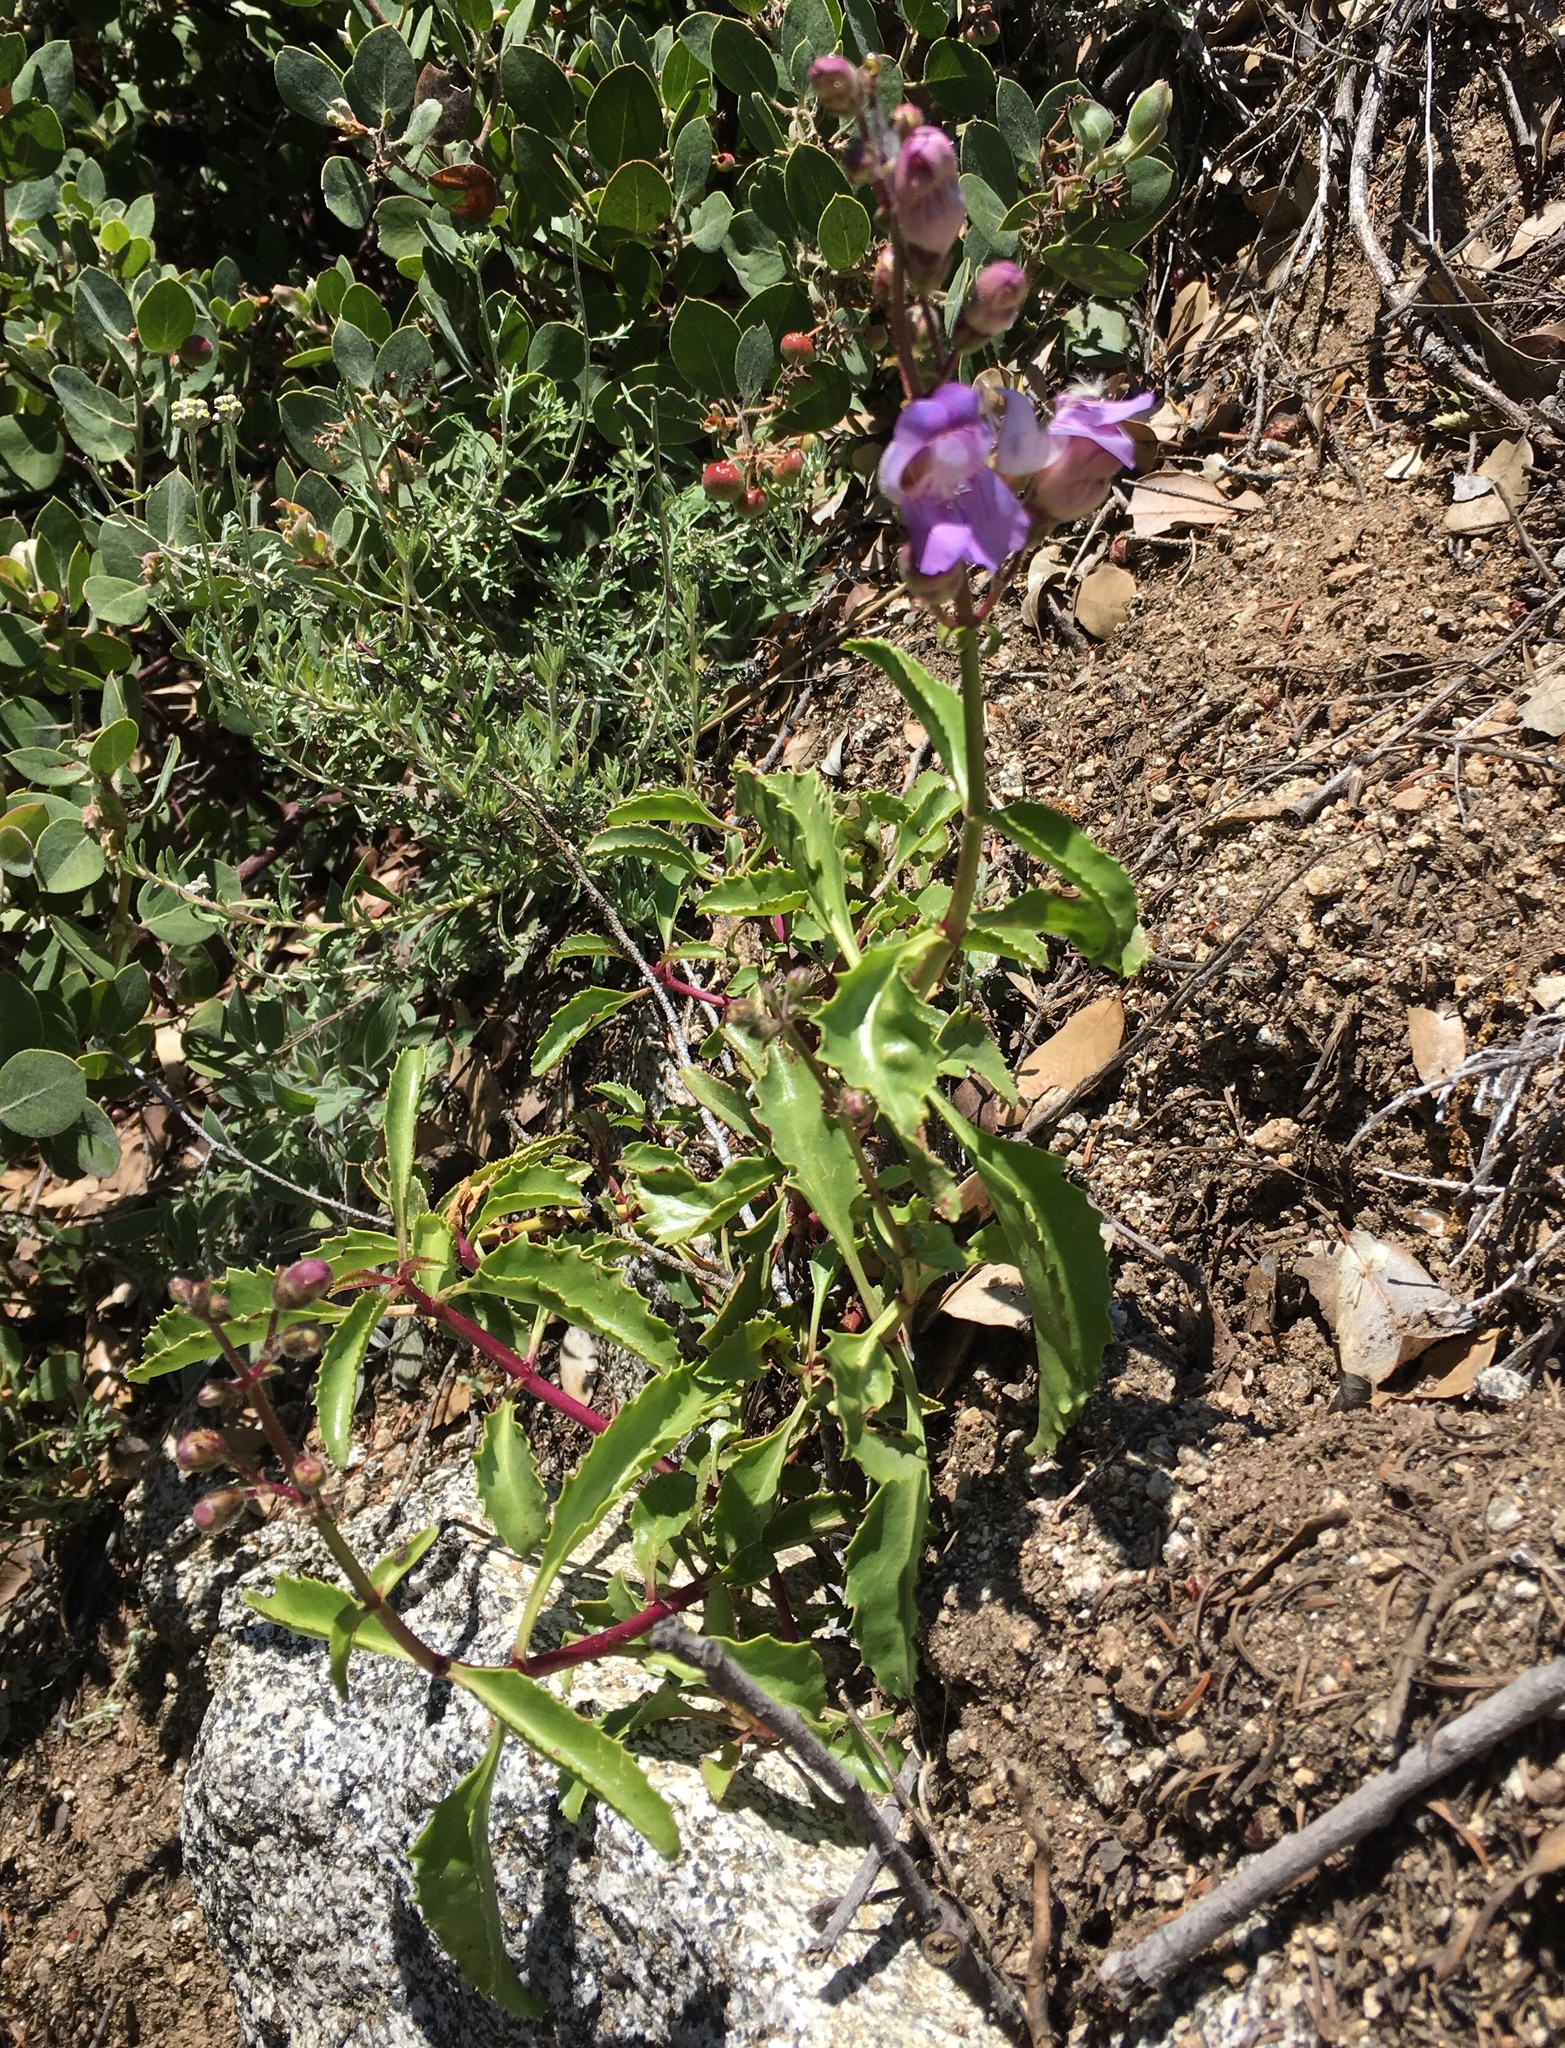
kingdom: Plantae
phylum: Tracheophyta
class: Magnoliopsida
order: Lamiales
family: Plantaginaceae
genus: Penstemon
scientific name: Penstemon grinnellii
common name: Grinnell's beardtongue
